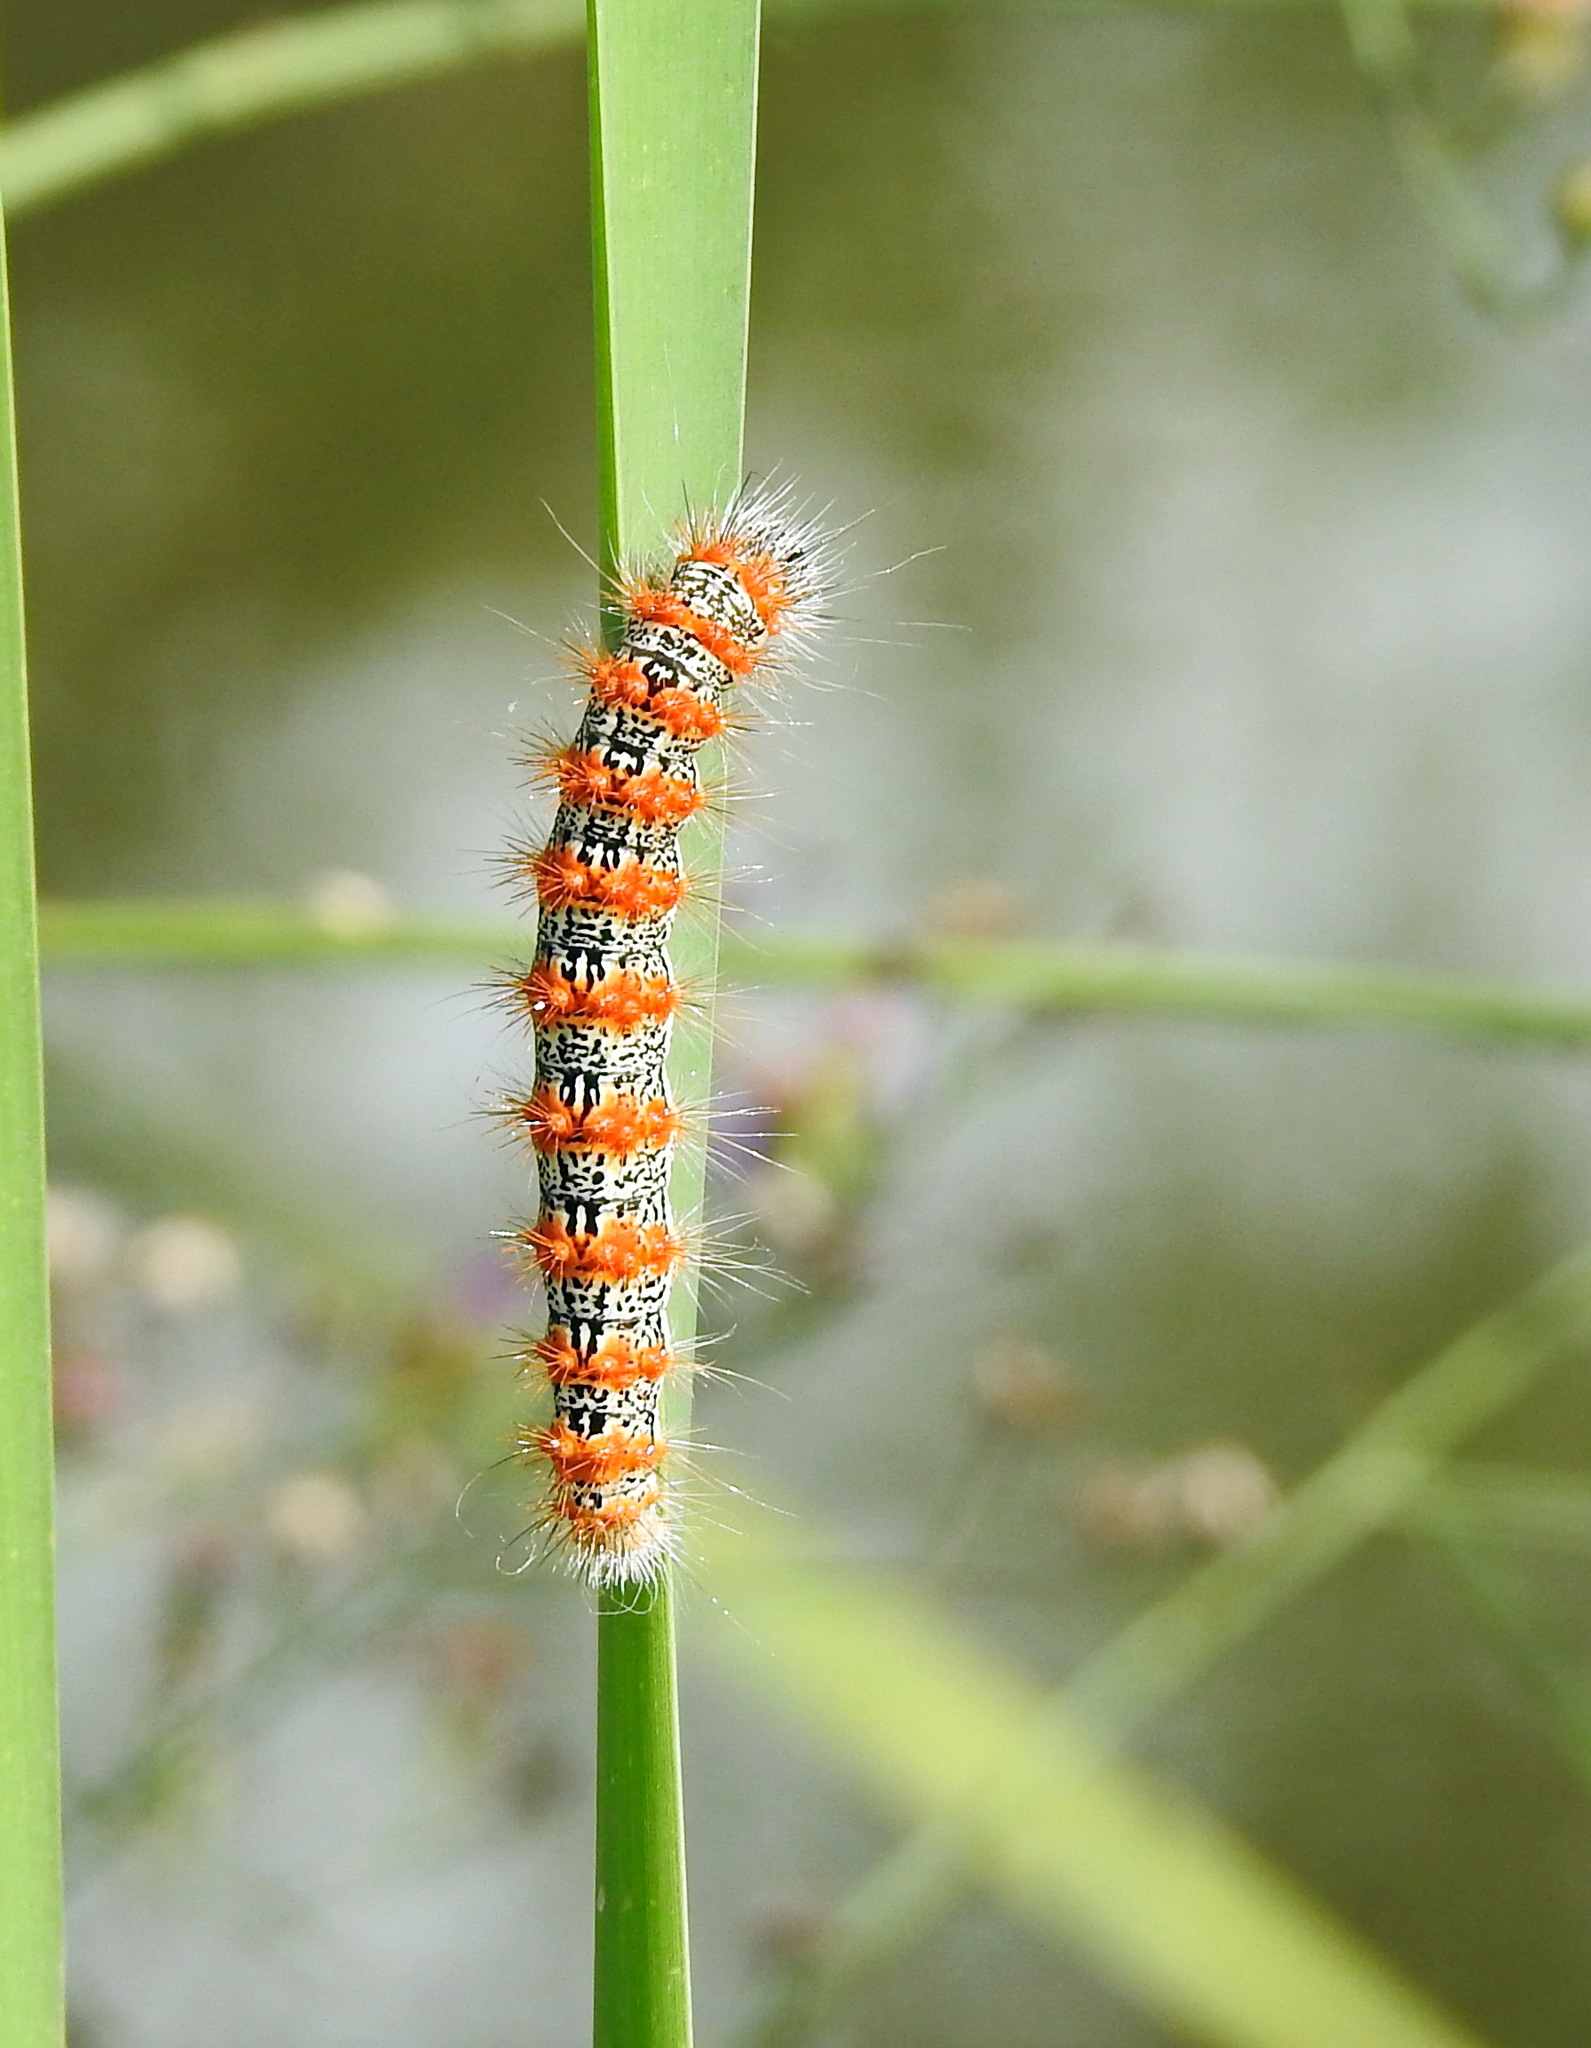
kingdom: Animalia
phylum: Arthropoda
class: Insecta
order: Lepidoptera
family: Noctuidae
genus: Acronicta
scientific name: Acronicta insularis
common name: Henry's marsh moth
